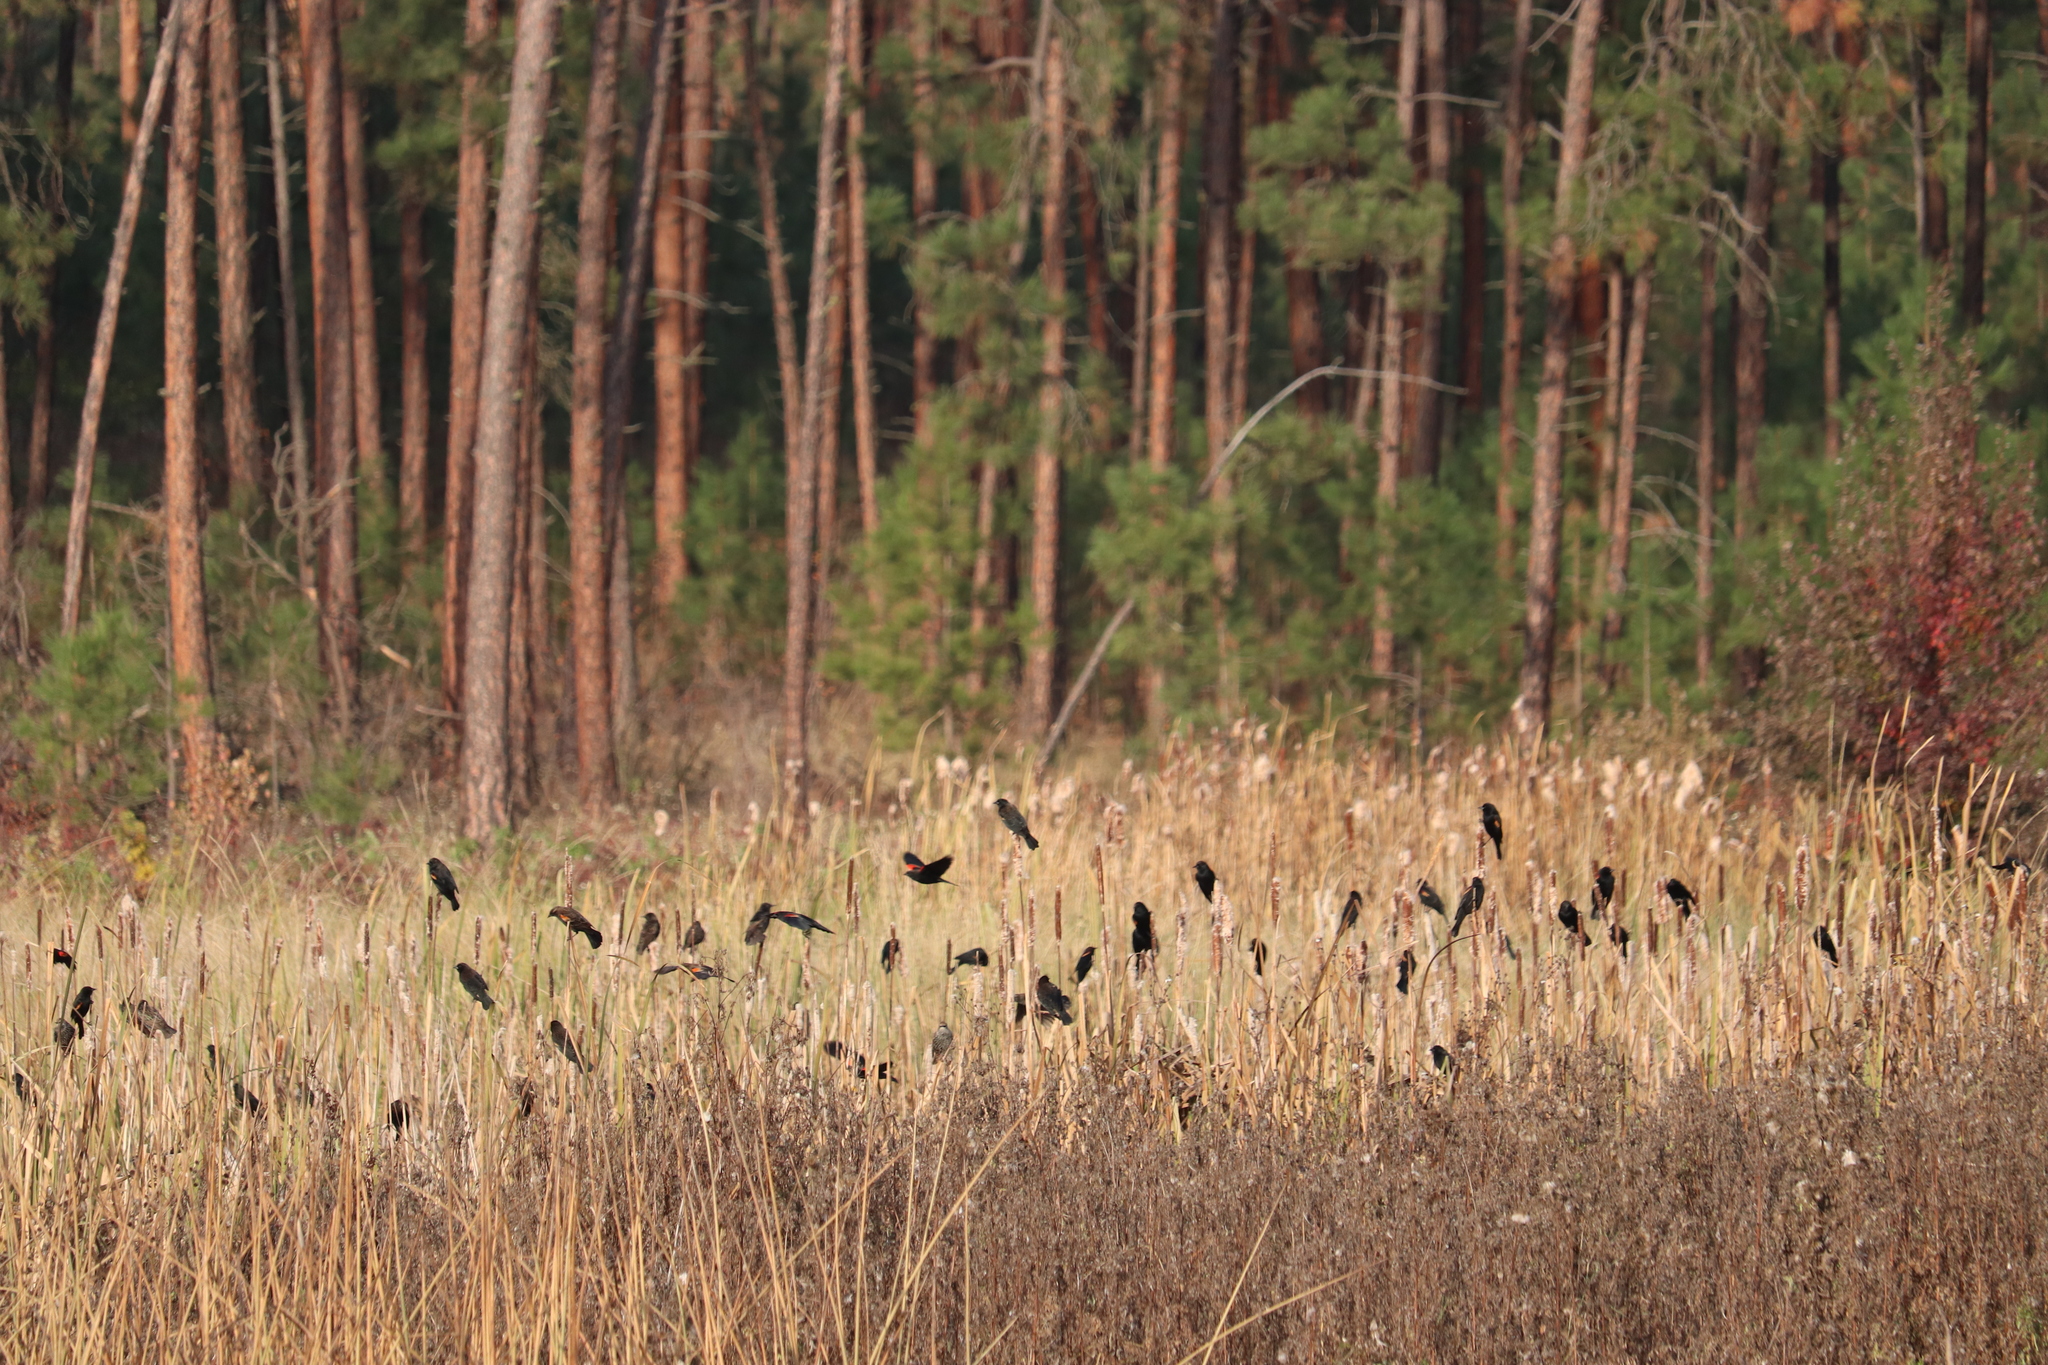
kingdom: Animalia
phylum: Chordata
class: Aves
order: Passeriformes
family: Icteridae
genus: Agelaius
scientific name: Agelaius phoeniceus
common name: Red-winged blackbird
